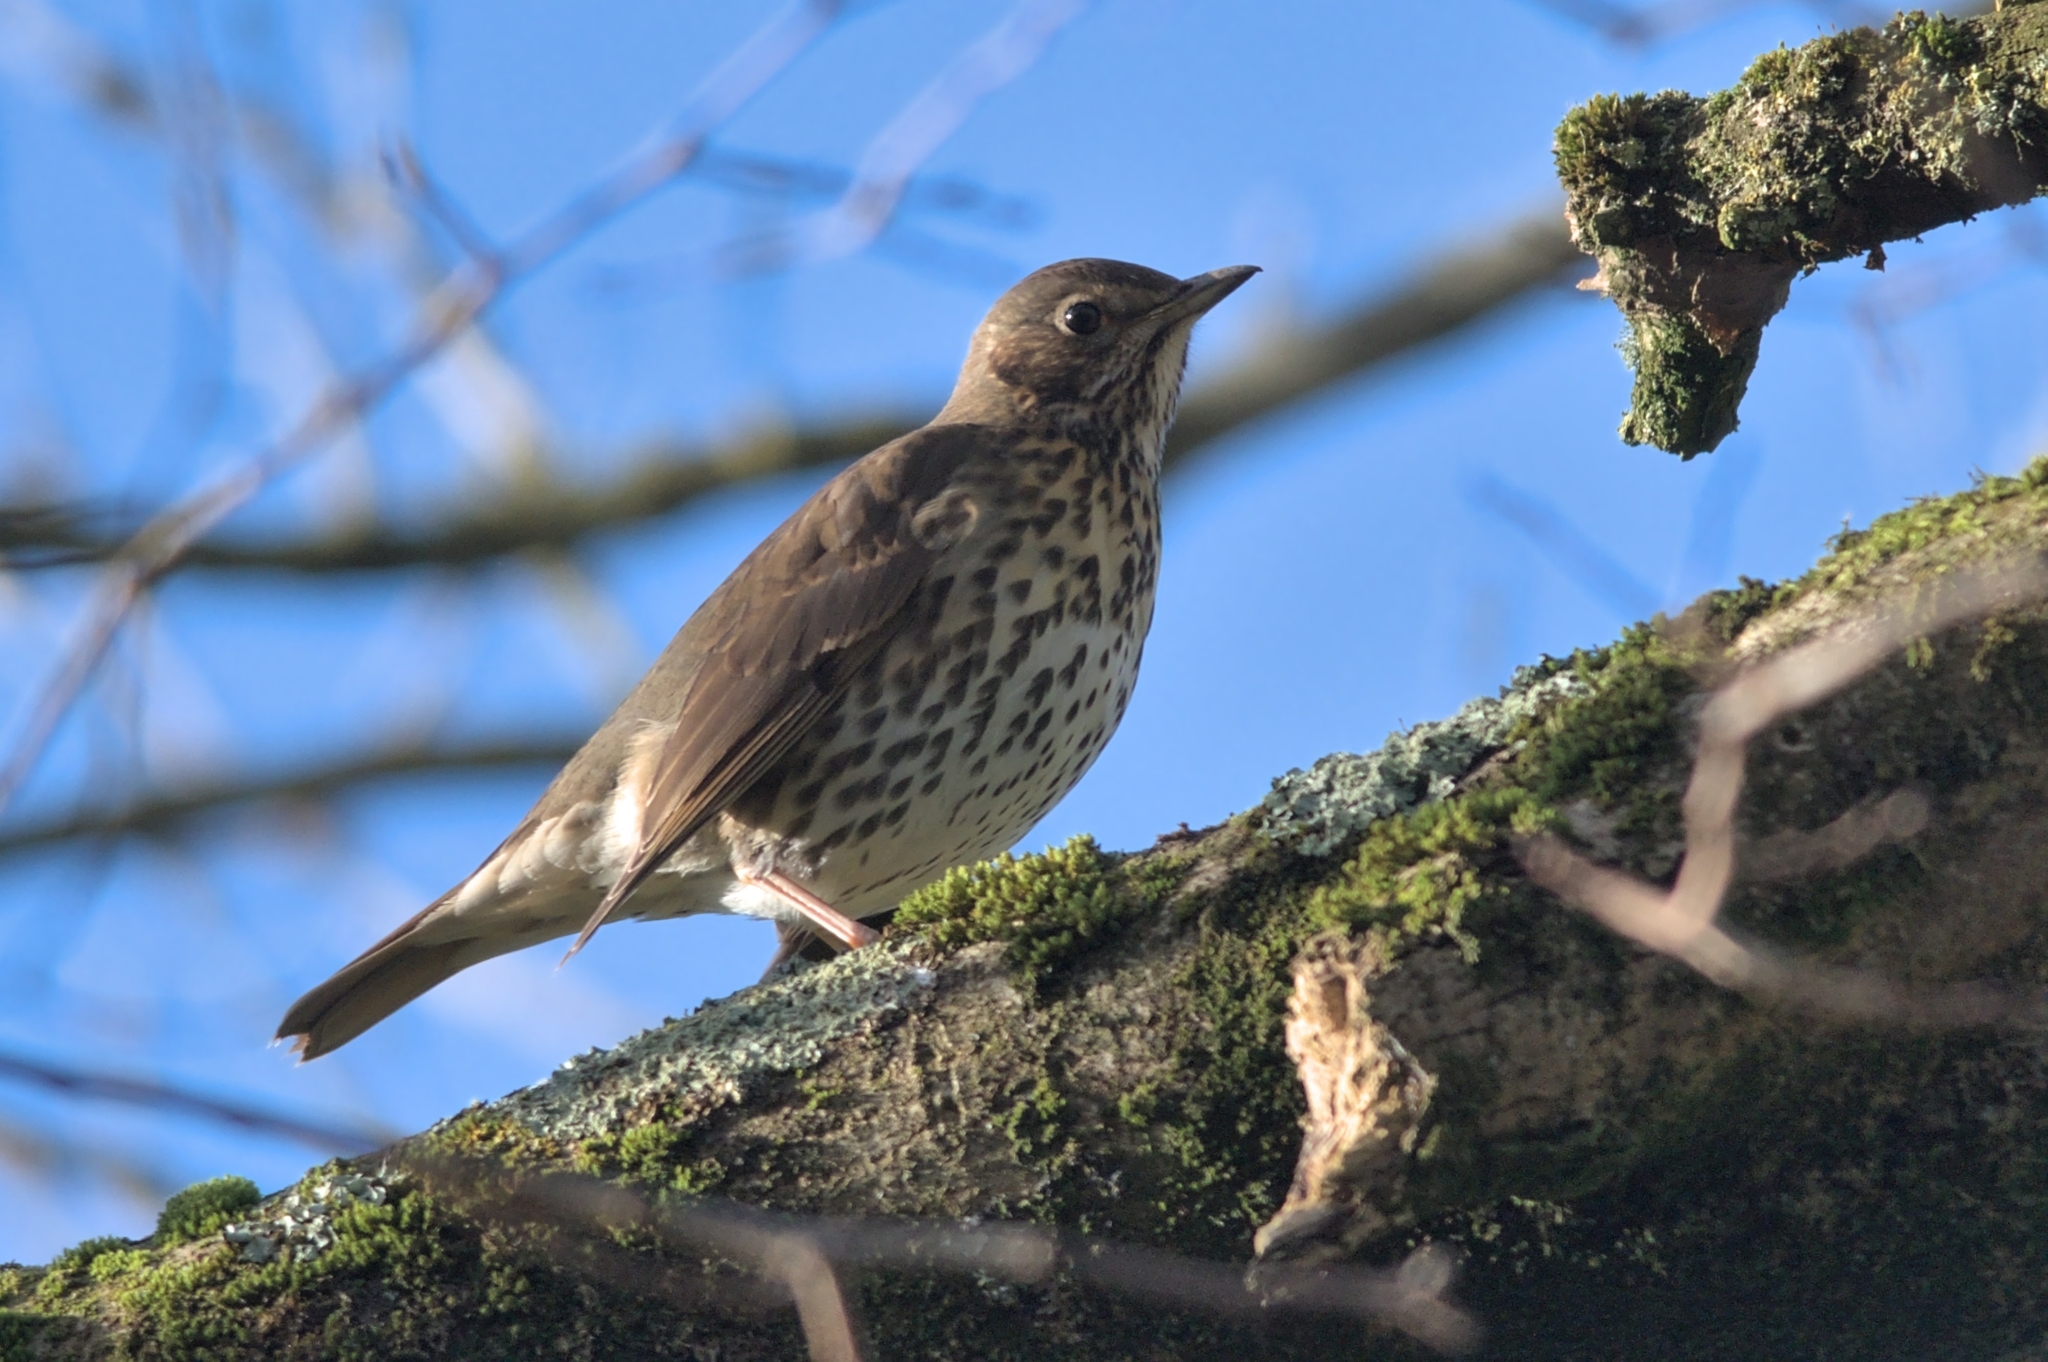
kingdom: Animalia
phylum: Chordata
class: Aves
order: Passeriformes
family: Turdidae
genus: Turdus
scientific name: Turdus philomelos
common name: Song thrush
